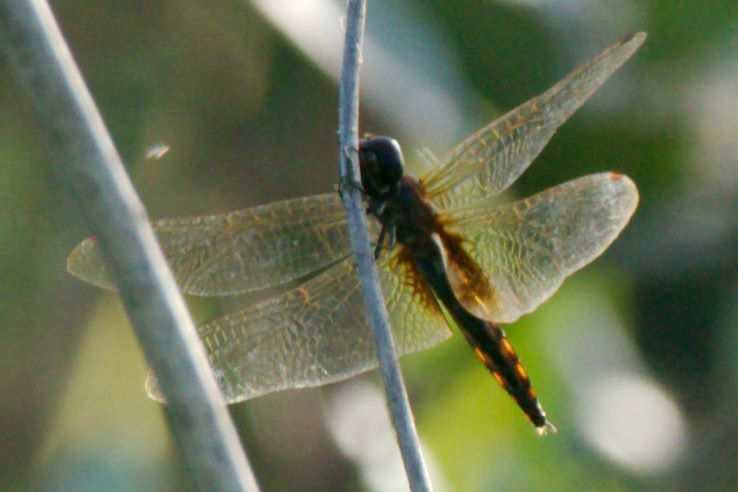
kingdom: Animalia
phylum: Arthropoda
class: Insecta
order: Odonata
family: Libellulidae
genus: Miathyria
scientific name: Miathyria marcella
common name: Hyacinth glider
